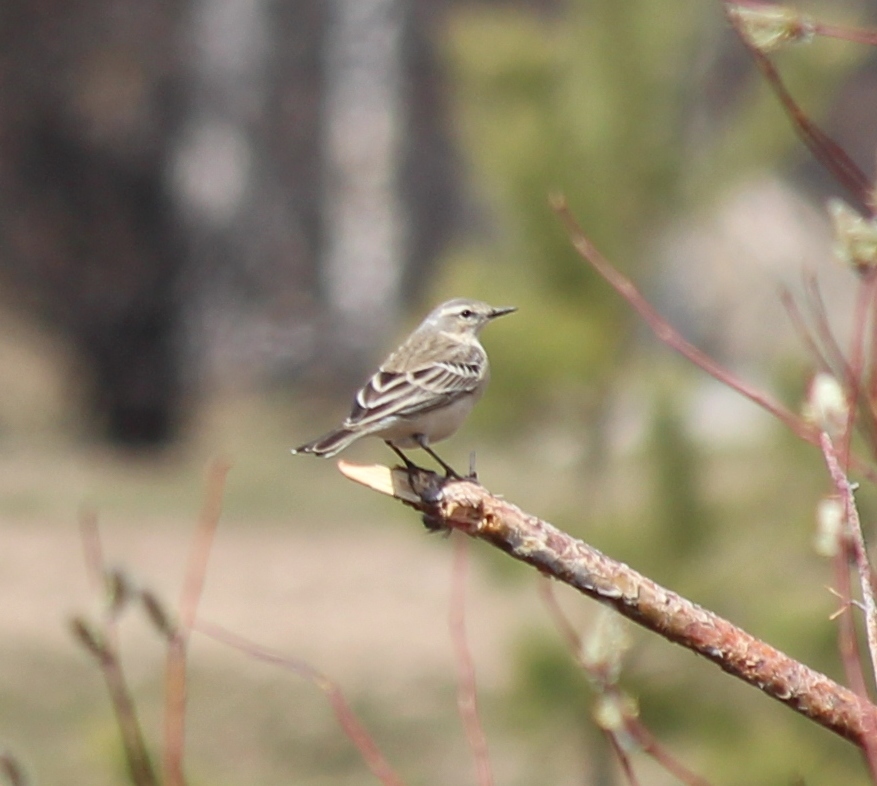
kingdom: Animalia
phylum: Chordata
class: Aves
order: Passeriformes
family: Motacillidae
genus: Anthus
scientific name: Anthus spinoletta
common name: Water pipit
